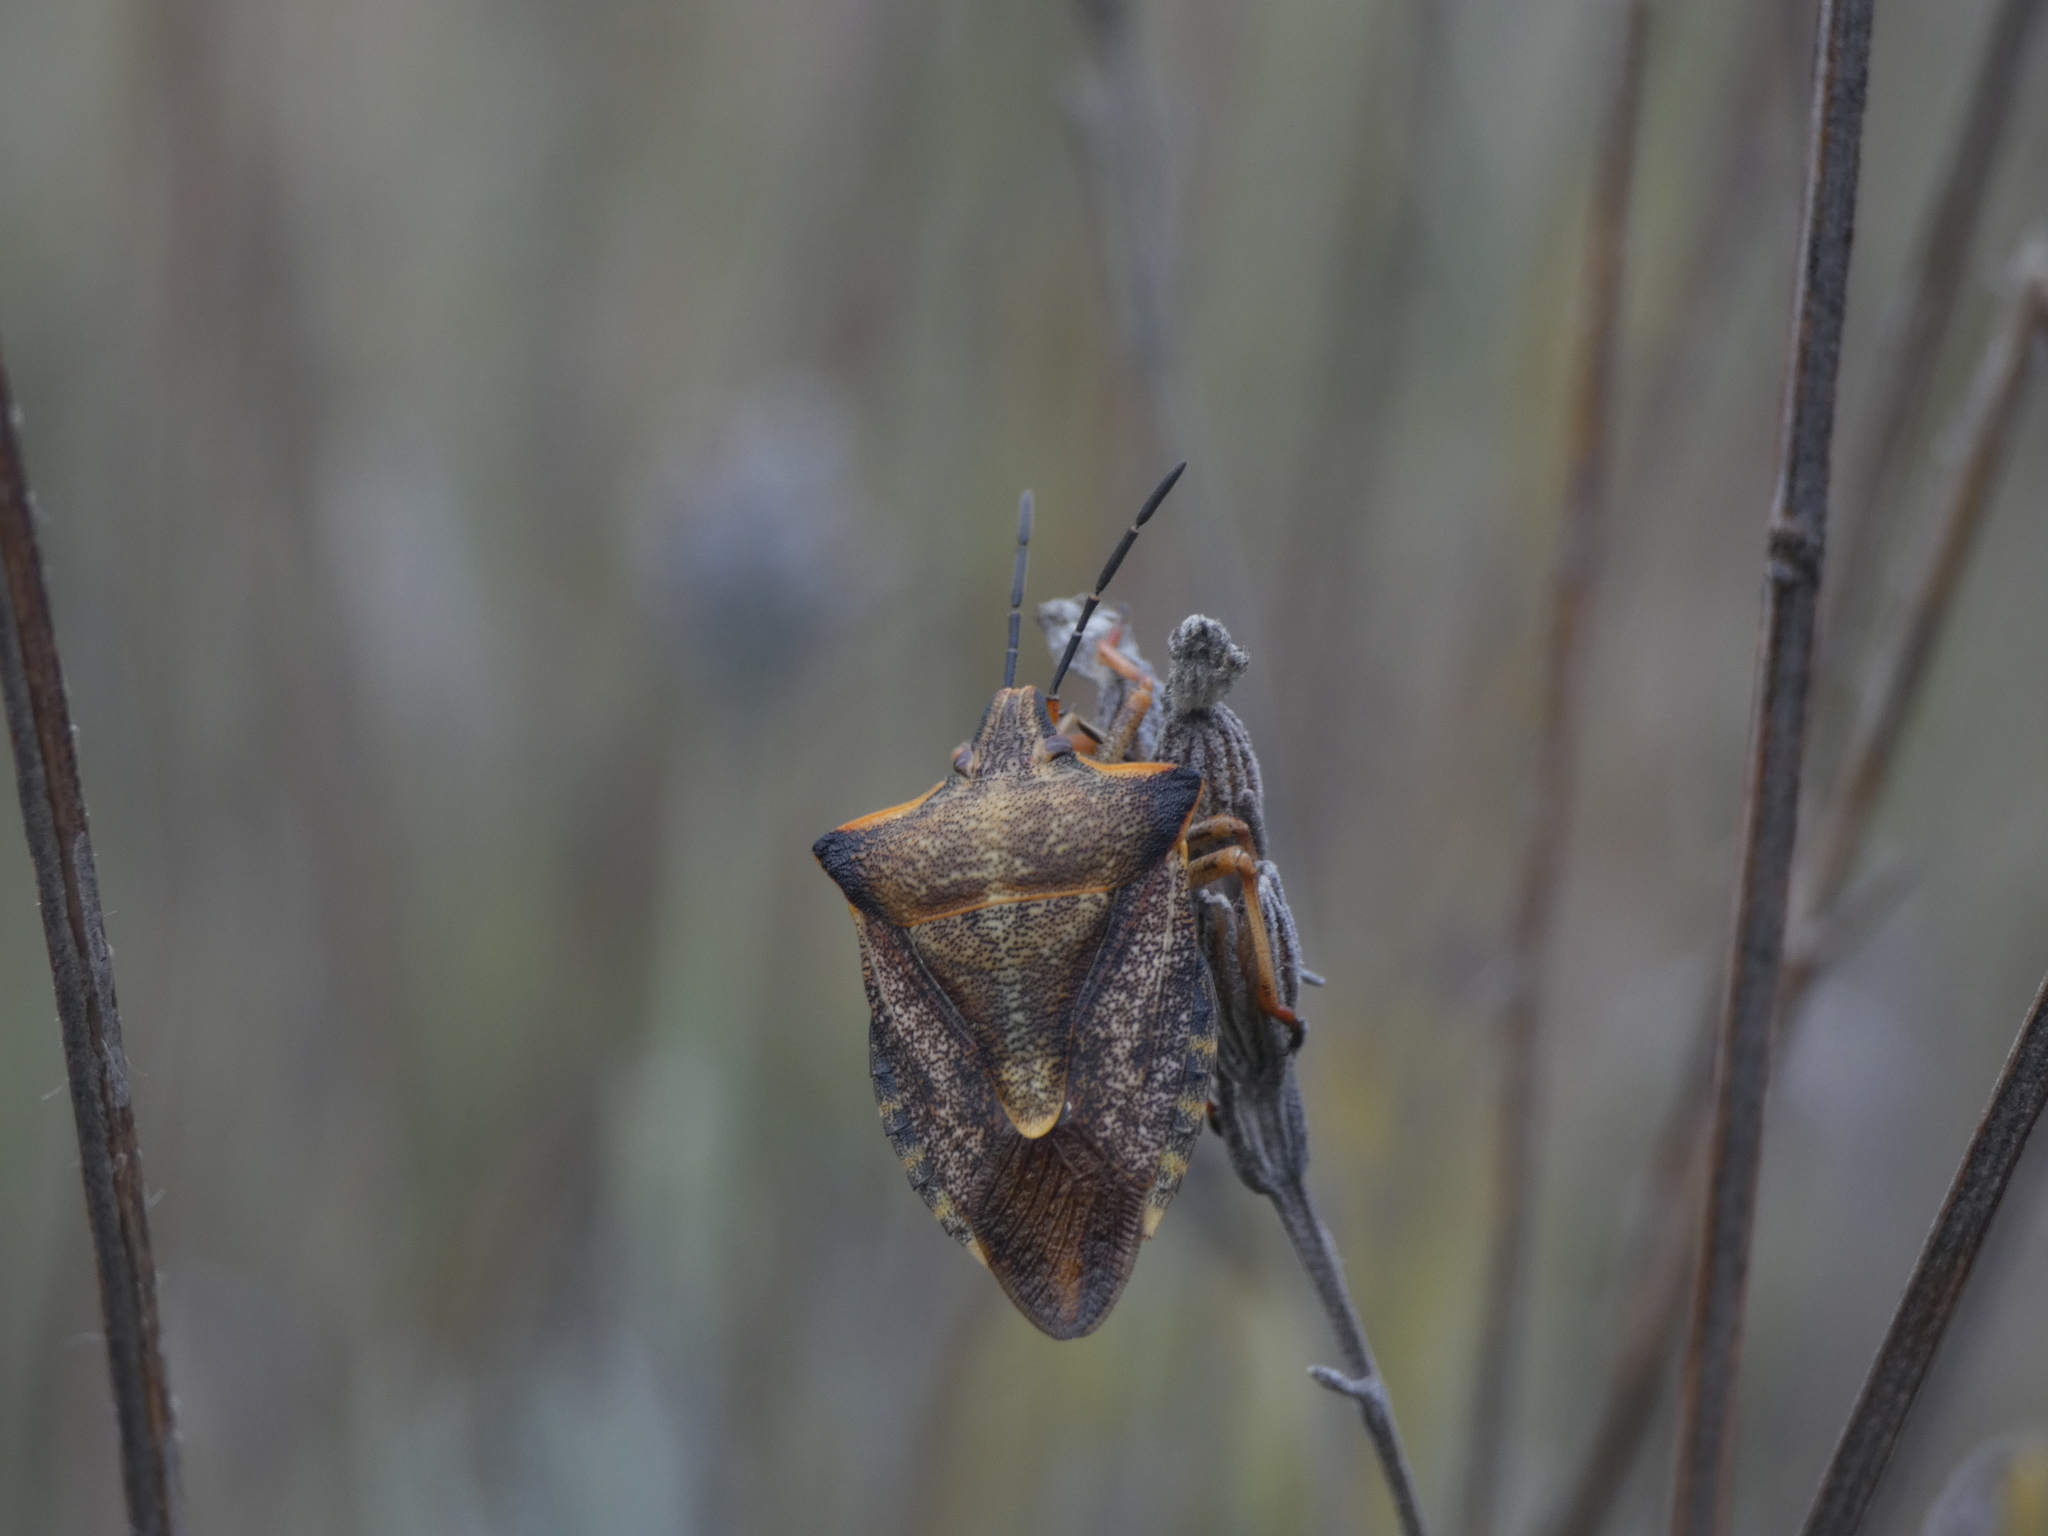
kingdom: Animalia
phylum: Arthropoda
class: Insecta
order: Hemiptera
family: Pentatomidae
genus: Carpocoris
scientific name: Carpocoris mediterraneus
